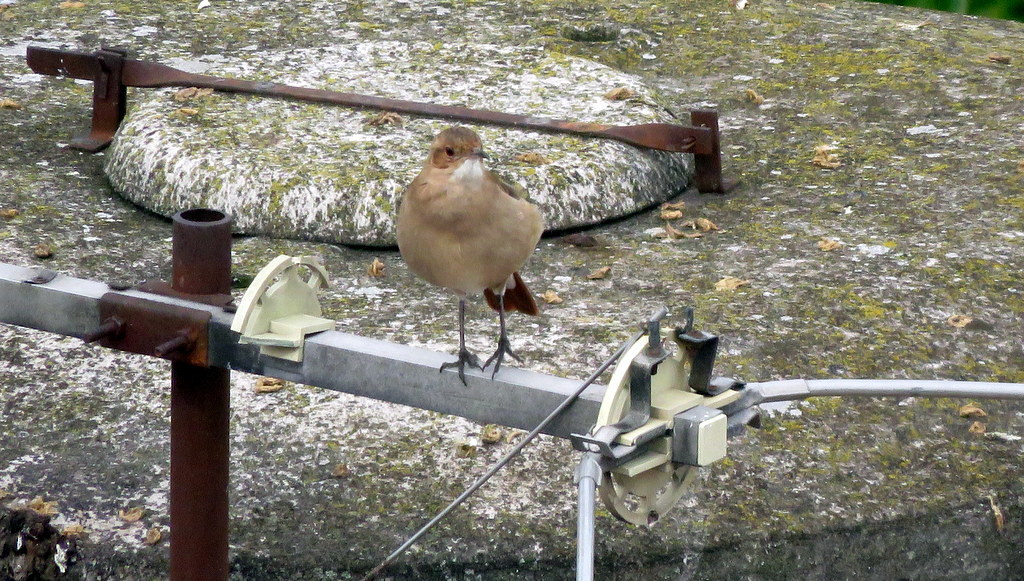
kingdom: Animalia
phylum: Chordata
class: Aves
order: Passeriformes
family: Furnariidae
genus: Furnarius
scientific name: Furnarius rufus
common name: Rufous hornero
